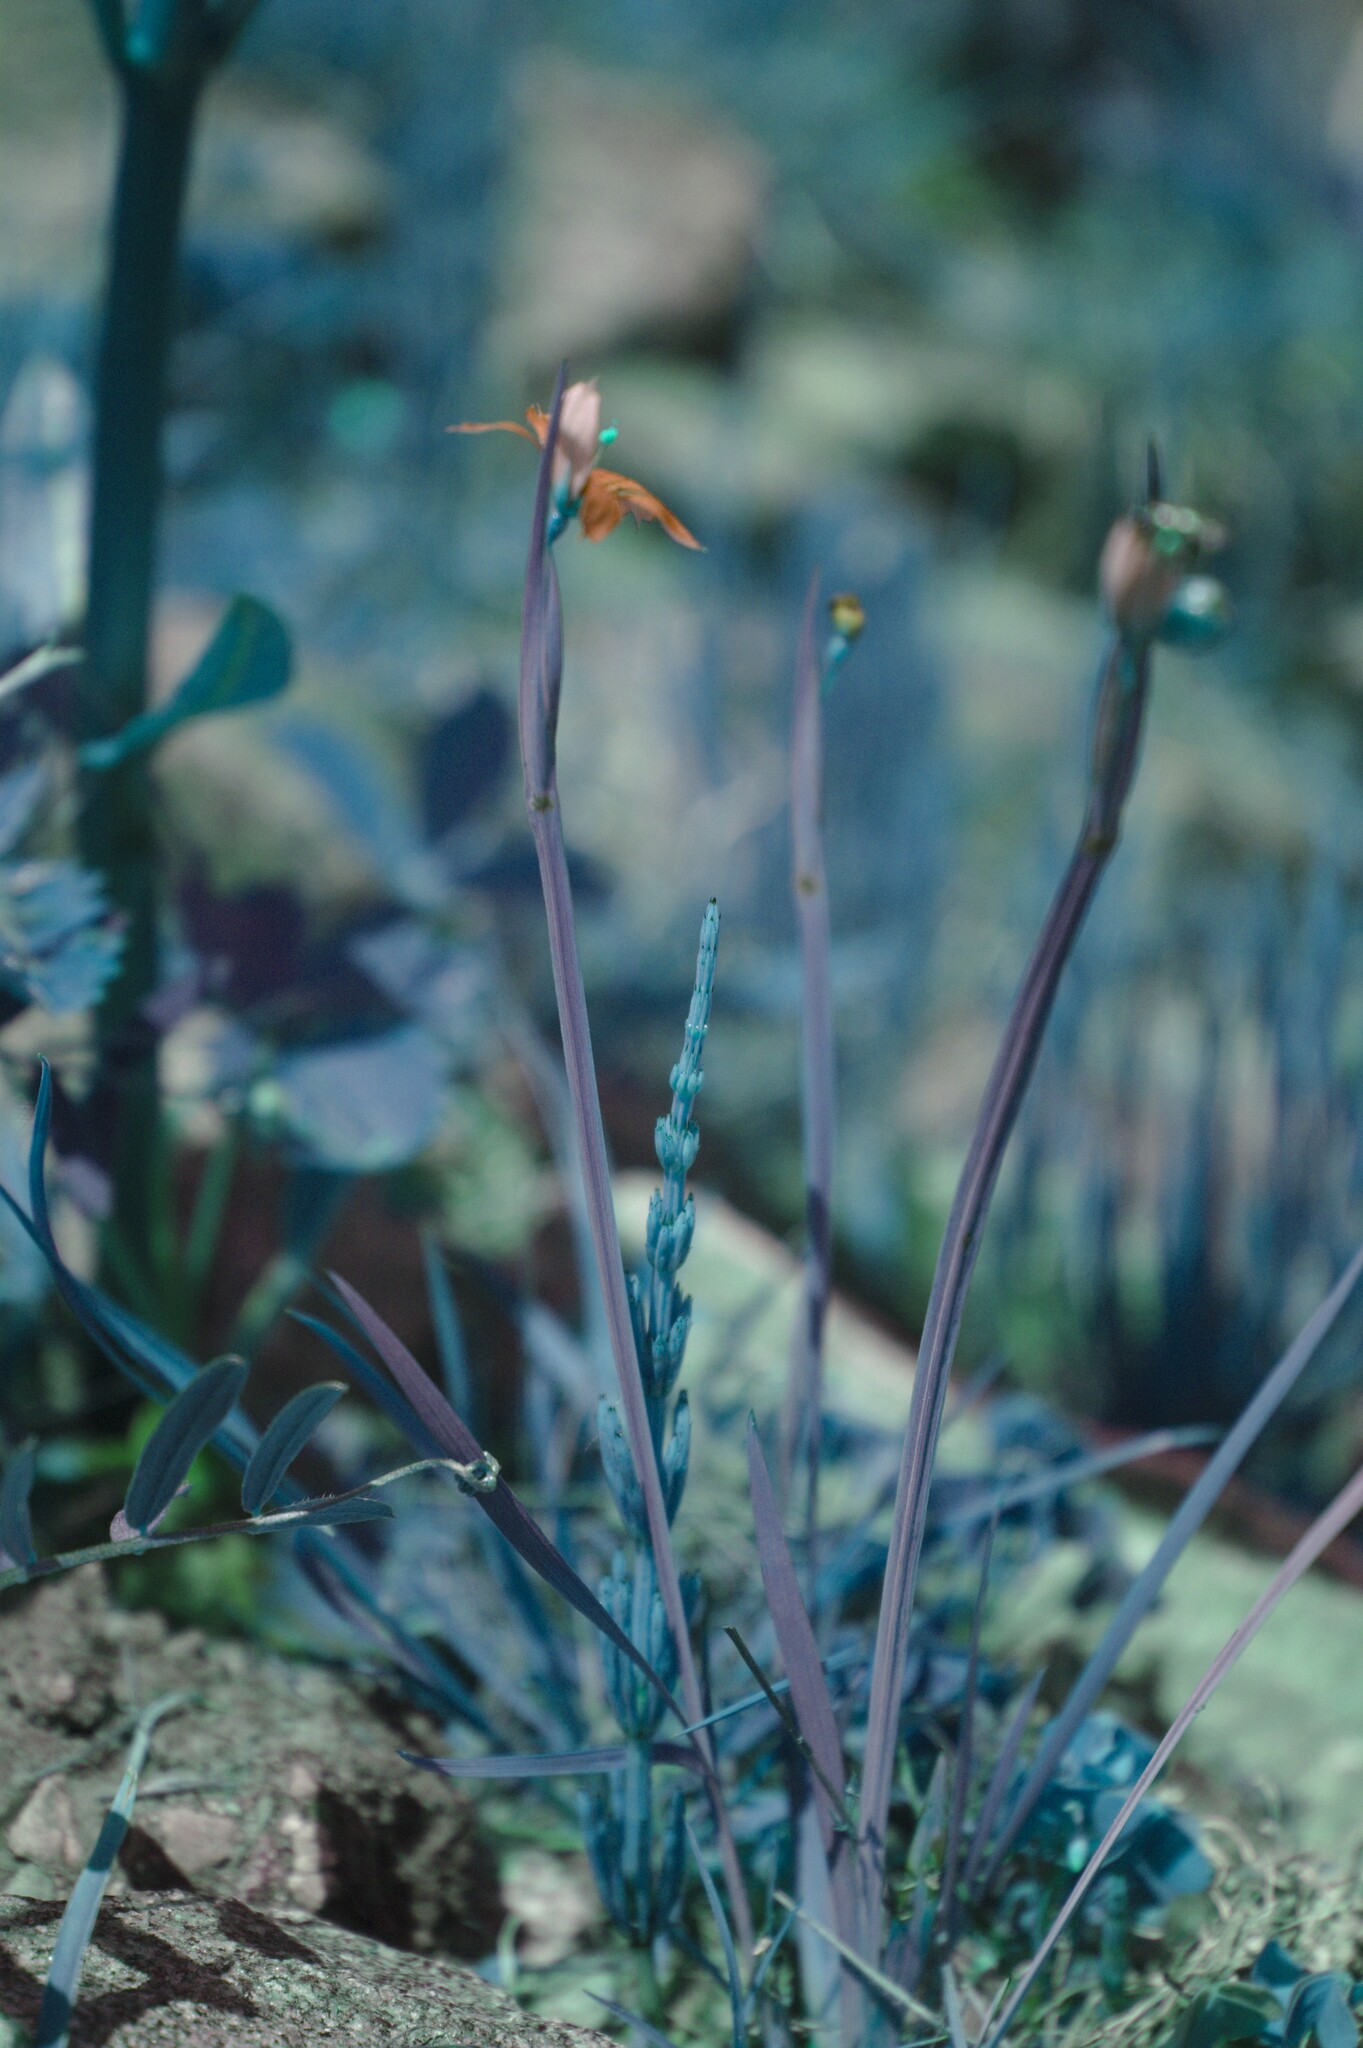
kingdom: Plantae
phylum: Tracheophyta
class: Liliopsida
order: Asparagales
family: Iridaceae
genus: Sisyrinchium
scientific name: Sisyrinchium montanum
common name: American blue-eyed-grass
